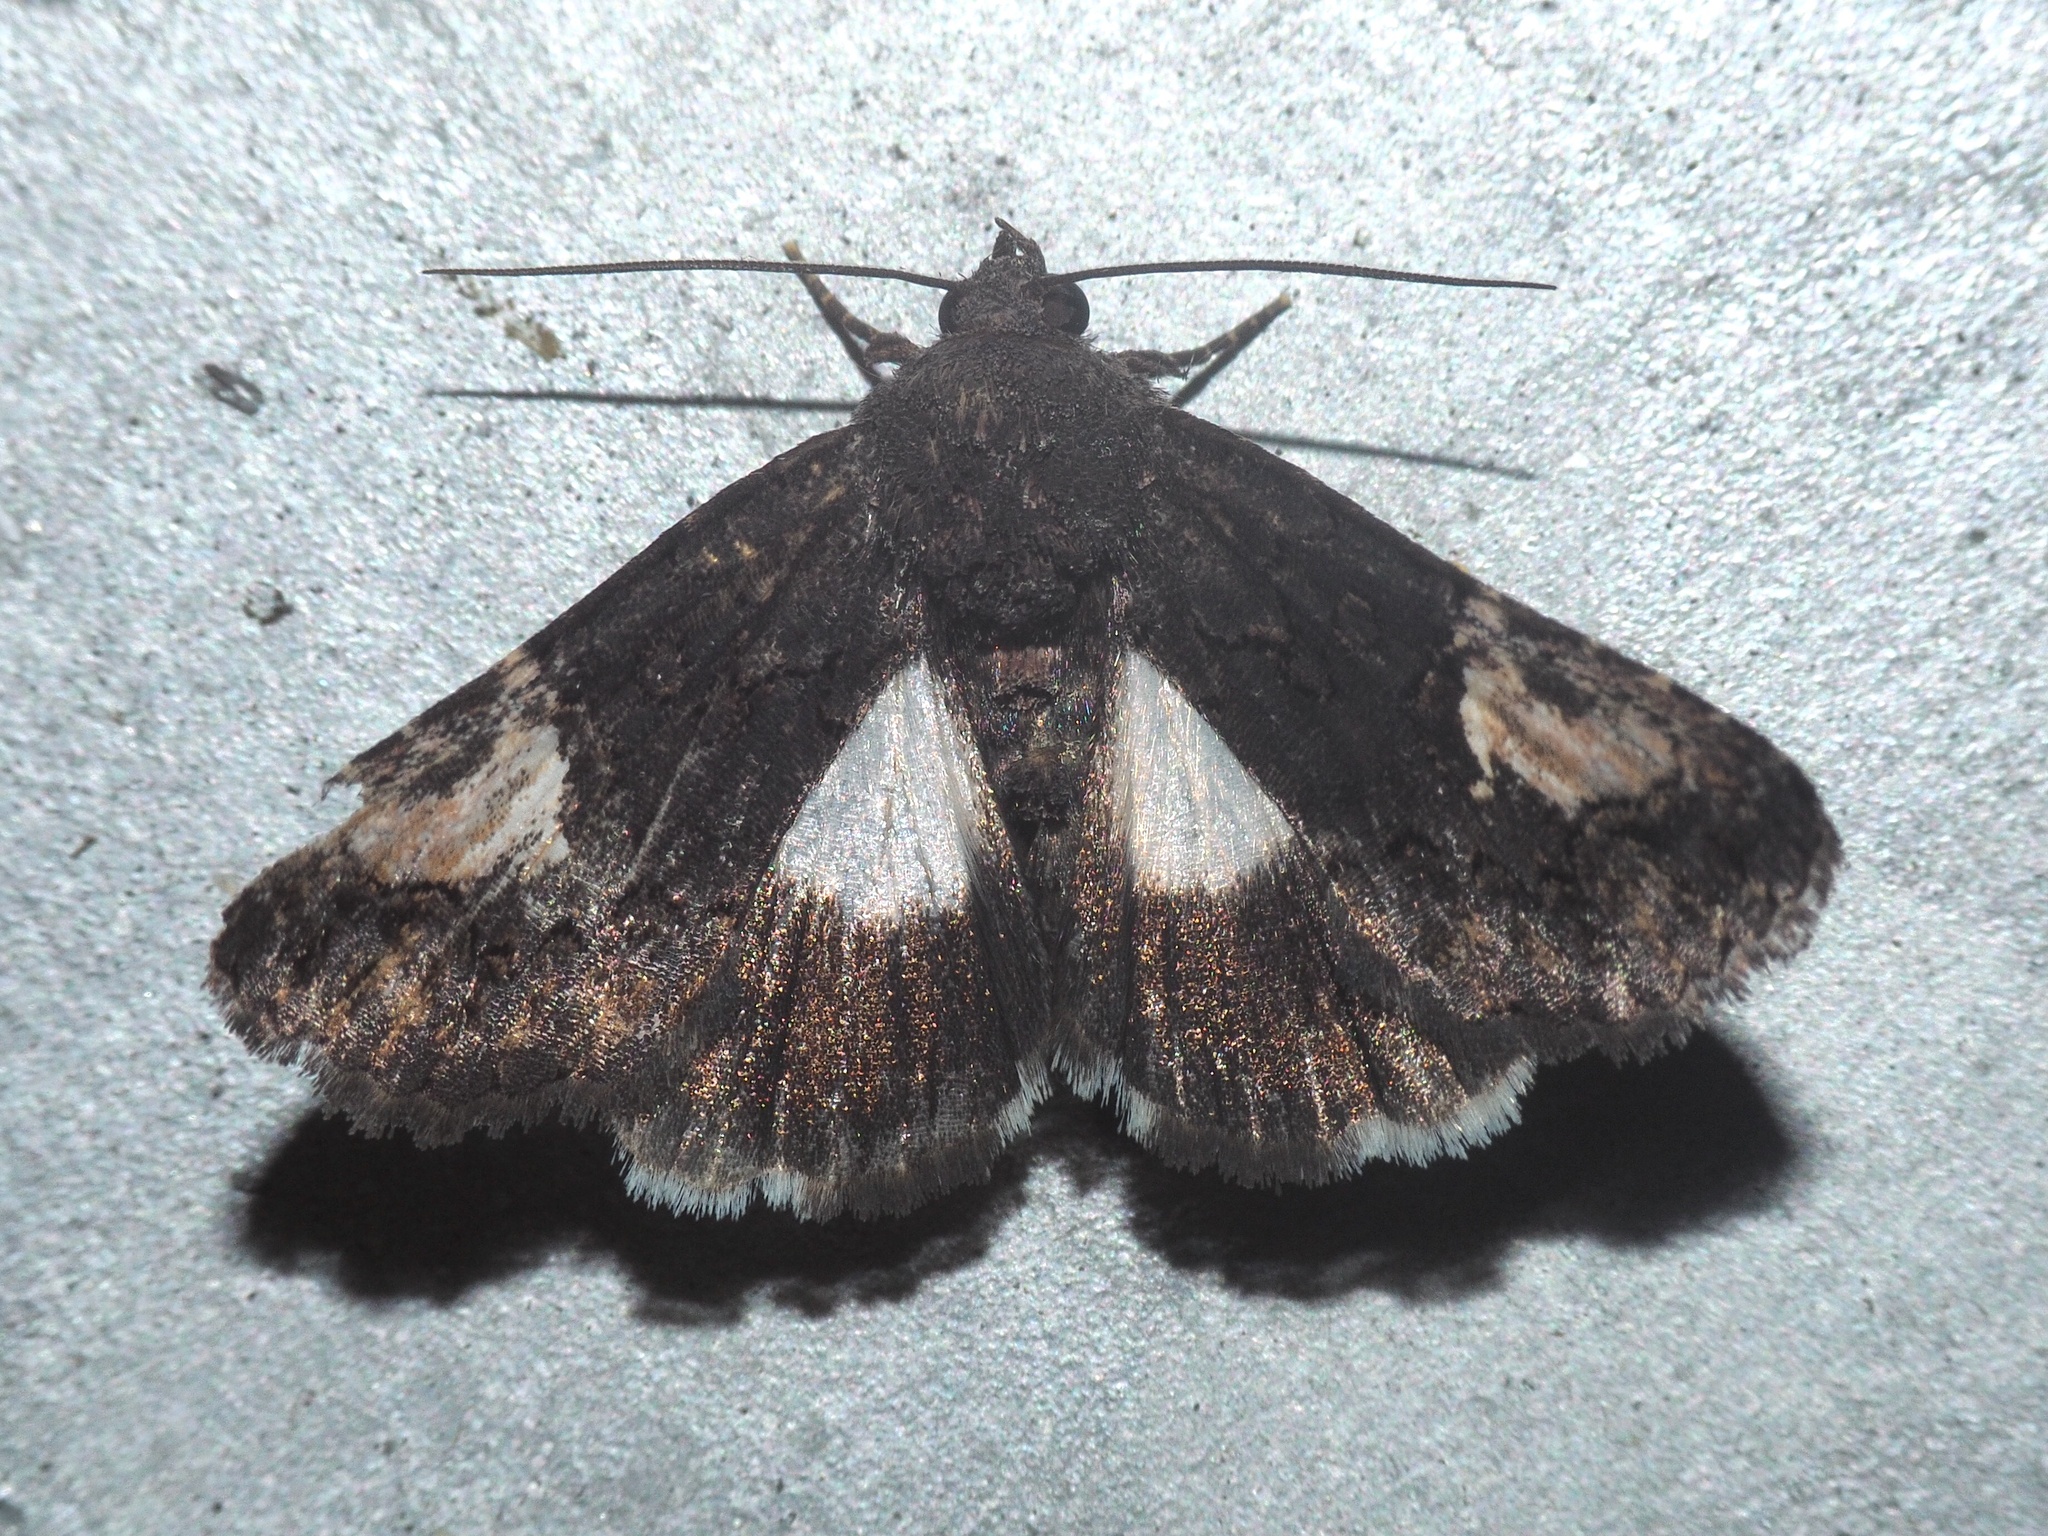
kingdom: Animalia
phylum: Arthropoda
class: Insecta
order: Lepidoptera
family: Noctuidae
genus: Aedia
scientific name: Aedia funesta
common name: The druid
